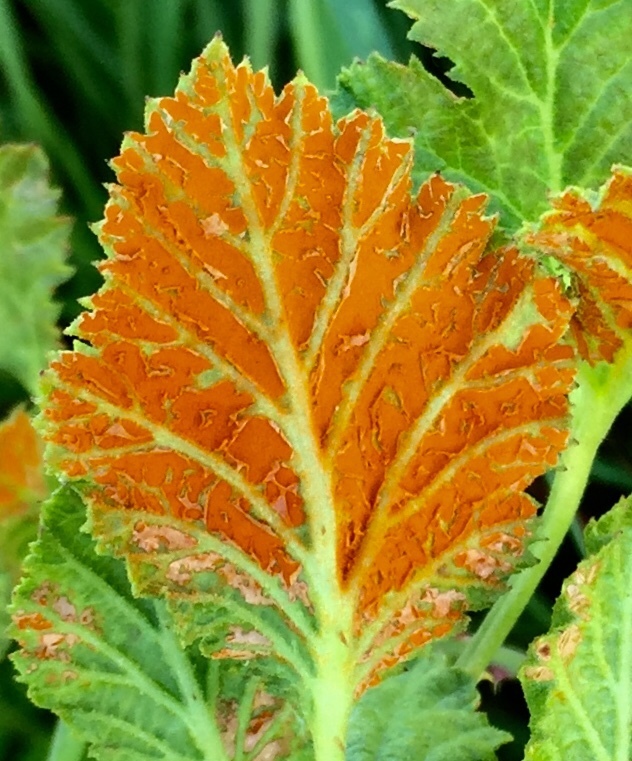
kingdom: Fungi
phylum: Basidiomycota
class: Pucciniomycetes
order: Pucciniales
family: Phragmidiaceae
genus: Arthuriomyces
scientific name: Arthuriomyces peckianus
